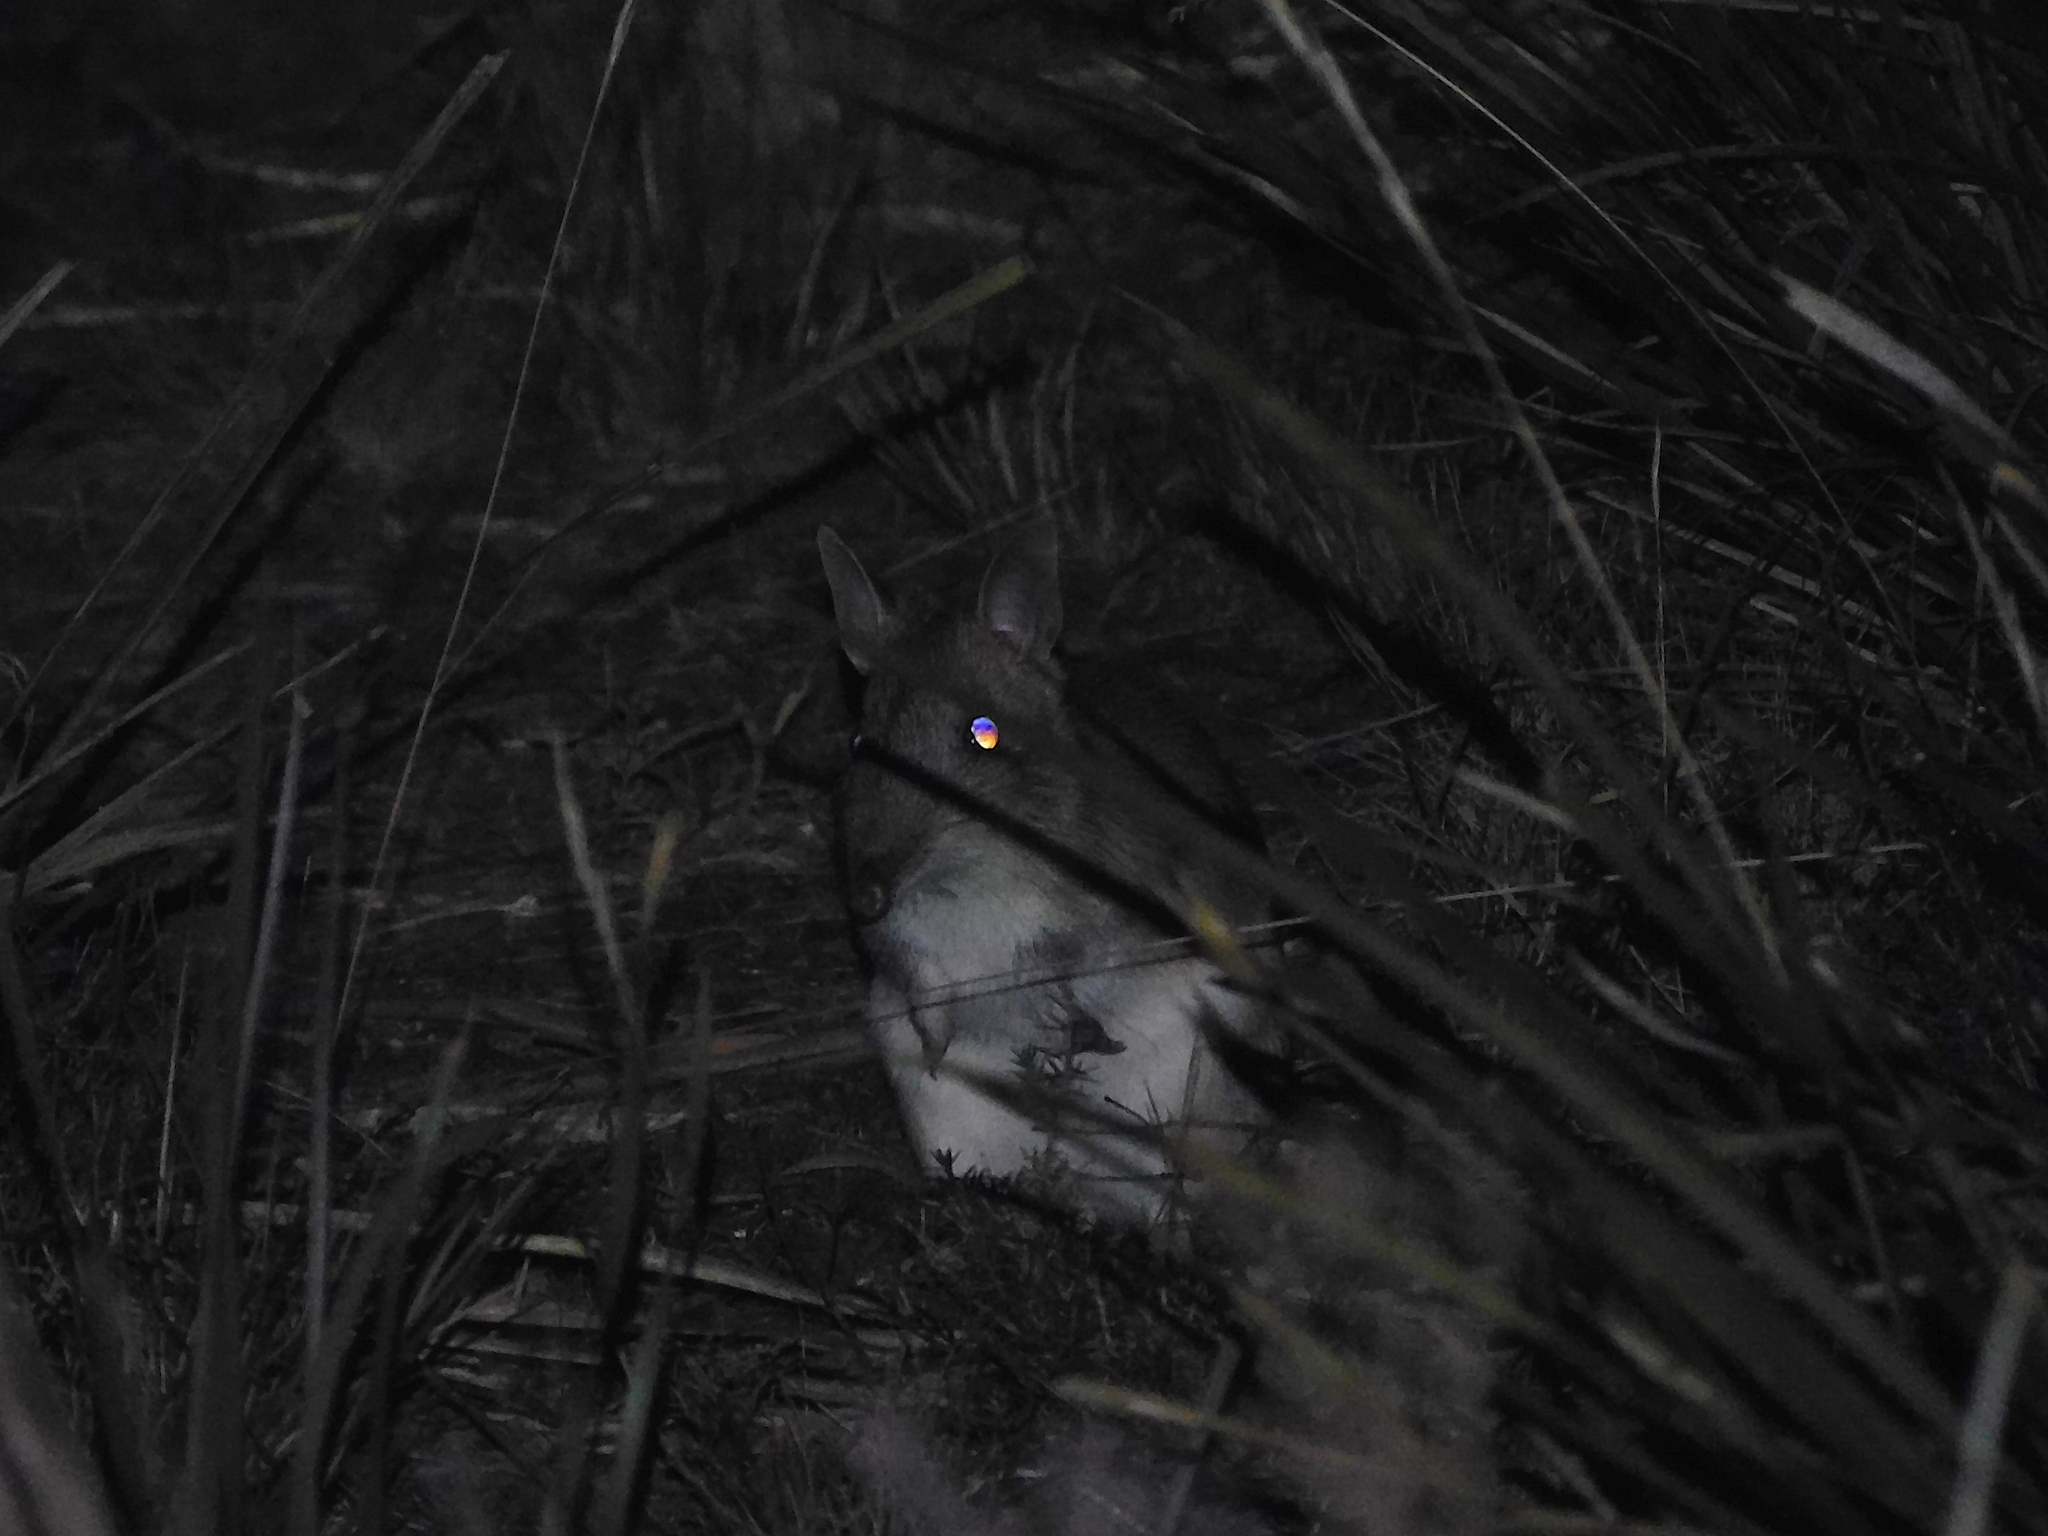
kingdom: Animalia
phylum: Chordata
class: Mammalia
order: Peramelemorphia
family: Peramelidae
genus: Perameles
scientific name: Perameles gunnii
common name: Eastern barred bandicoot
